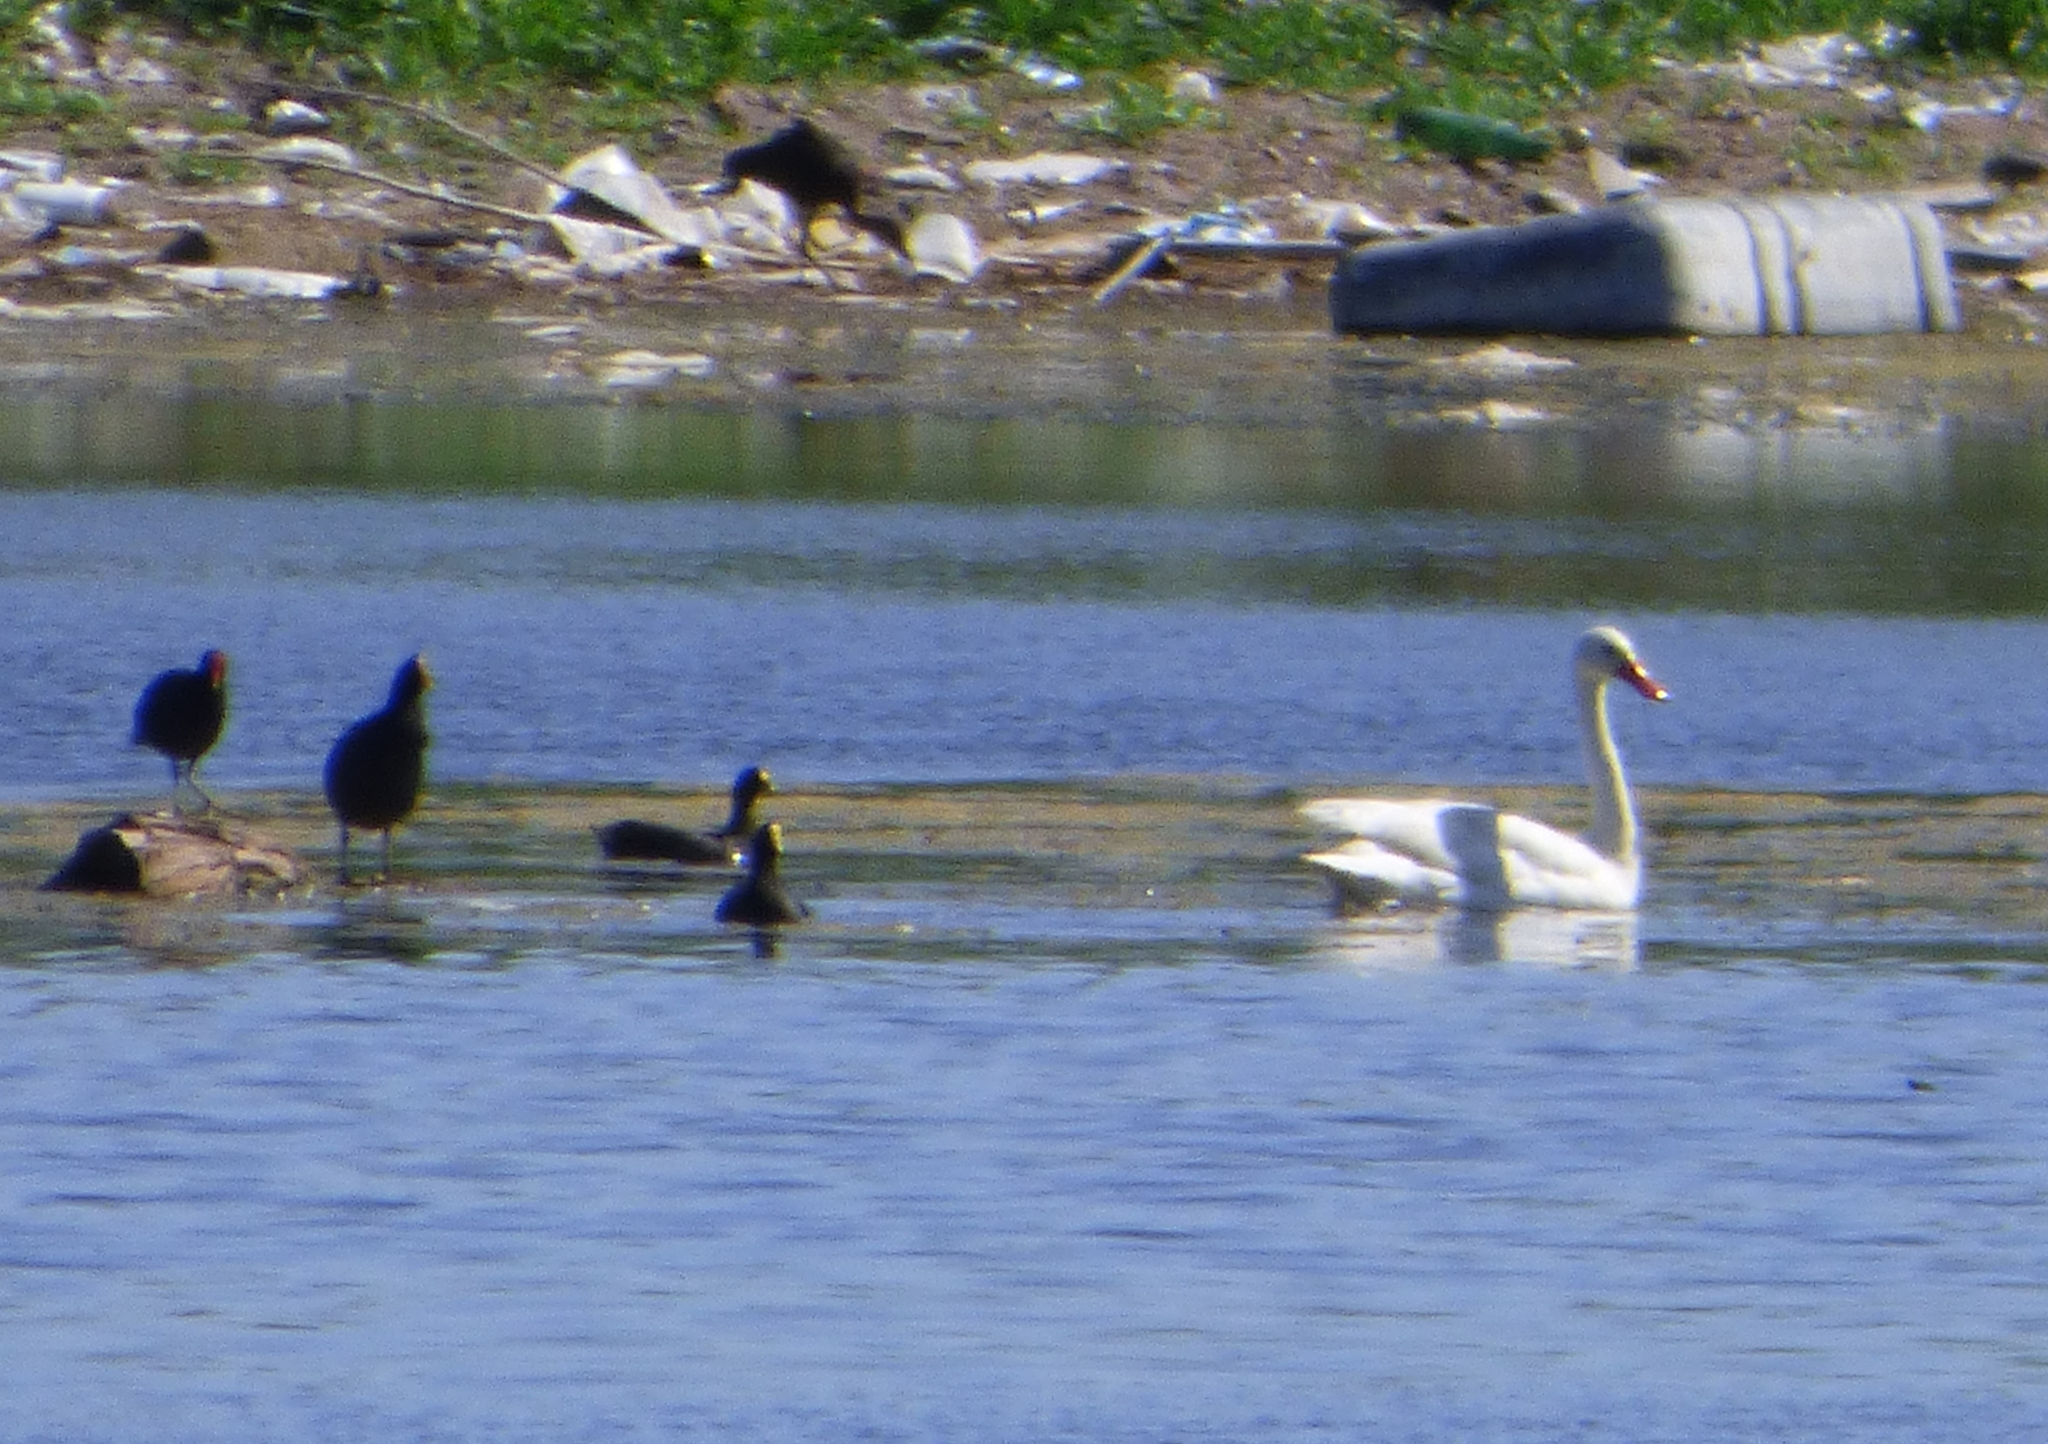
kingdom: Animalia
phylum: Chordata
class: Aves
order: Anseriformes
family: Anatidae
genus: Coscoroba
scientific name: Coscoroba coscoroba
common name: Coscoroba swan
